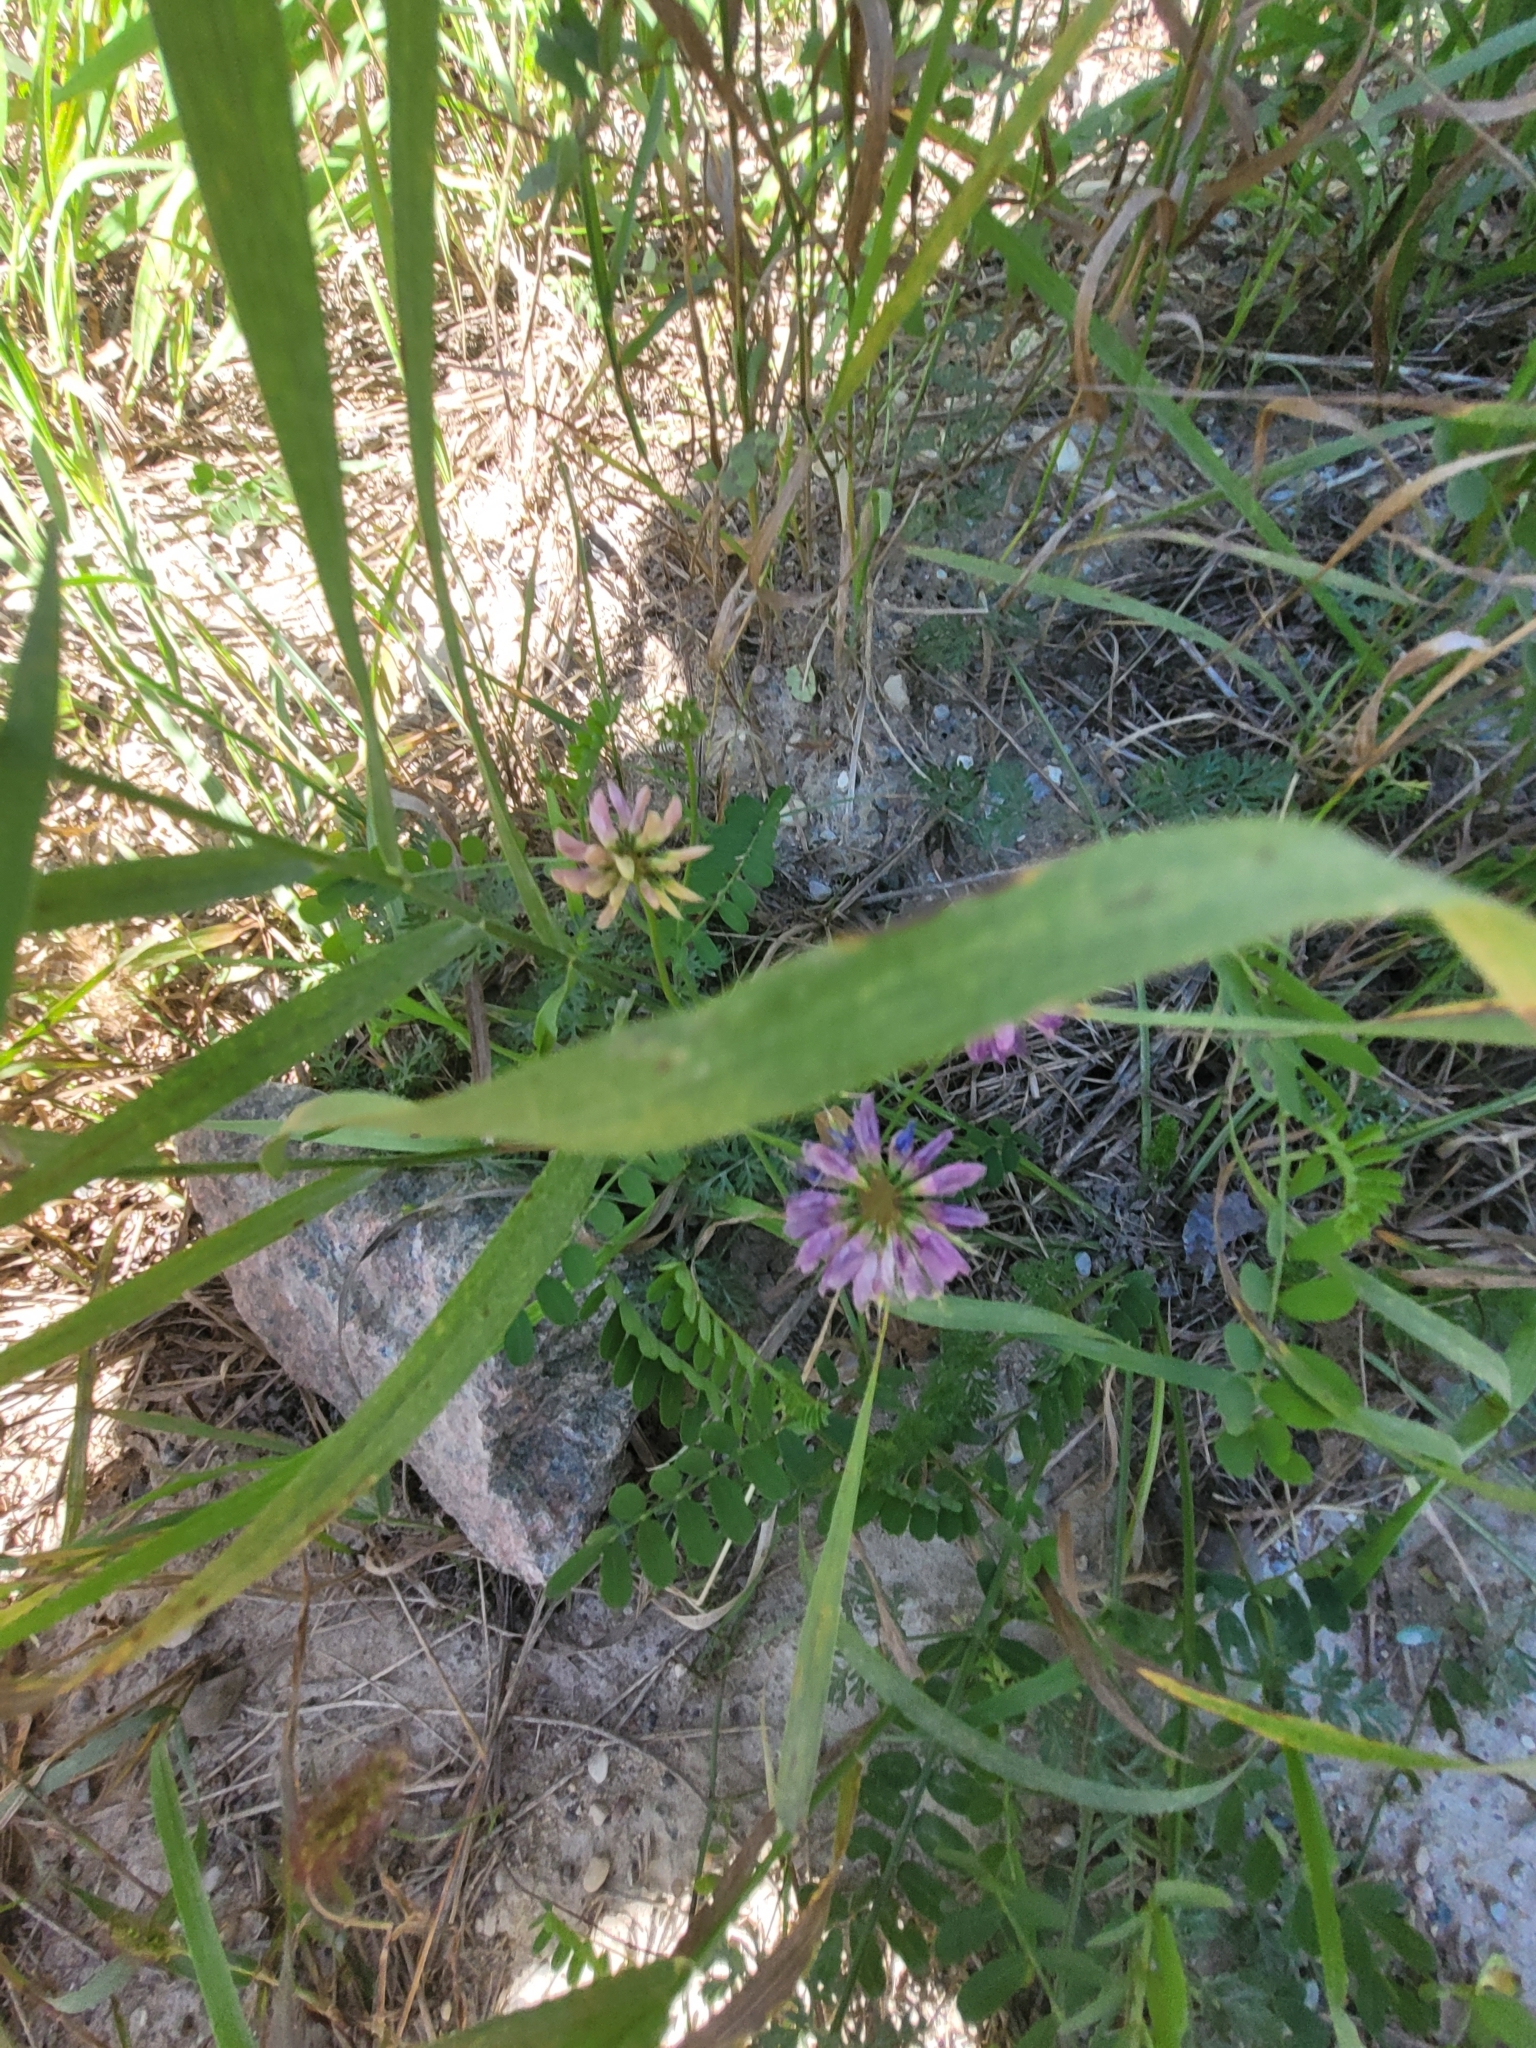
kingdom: Plantae
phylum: Tracheophyta
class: Magnoliopsida
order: Fabales
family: Fabaceae
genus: Coronilla
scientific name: Coronilla varia
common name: Crownvetch
